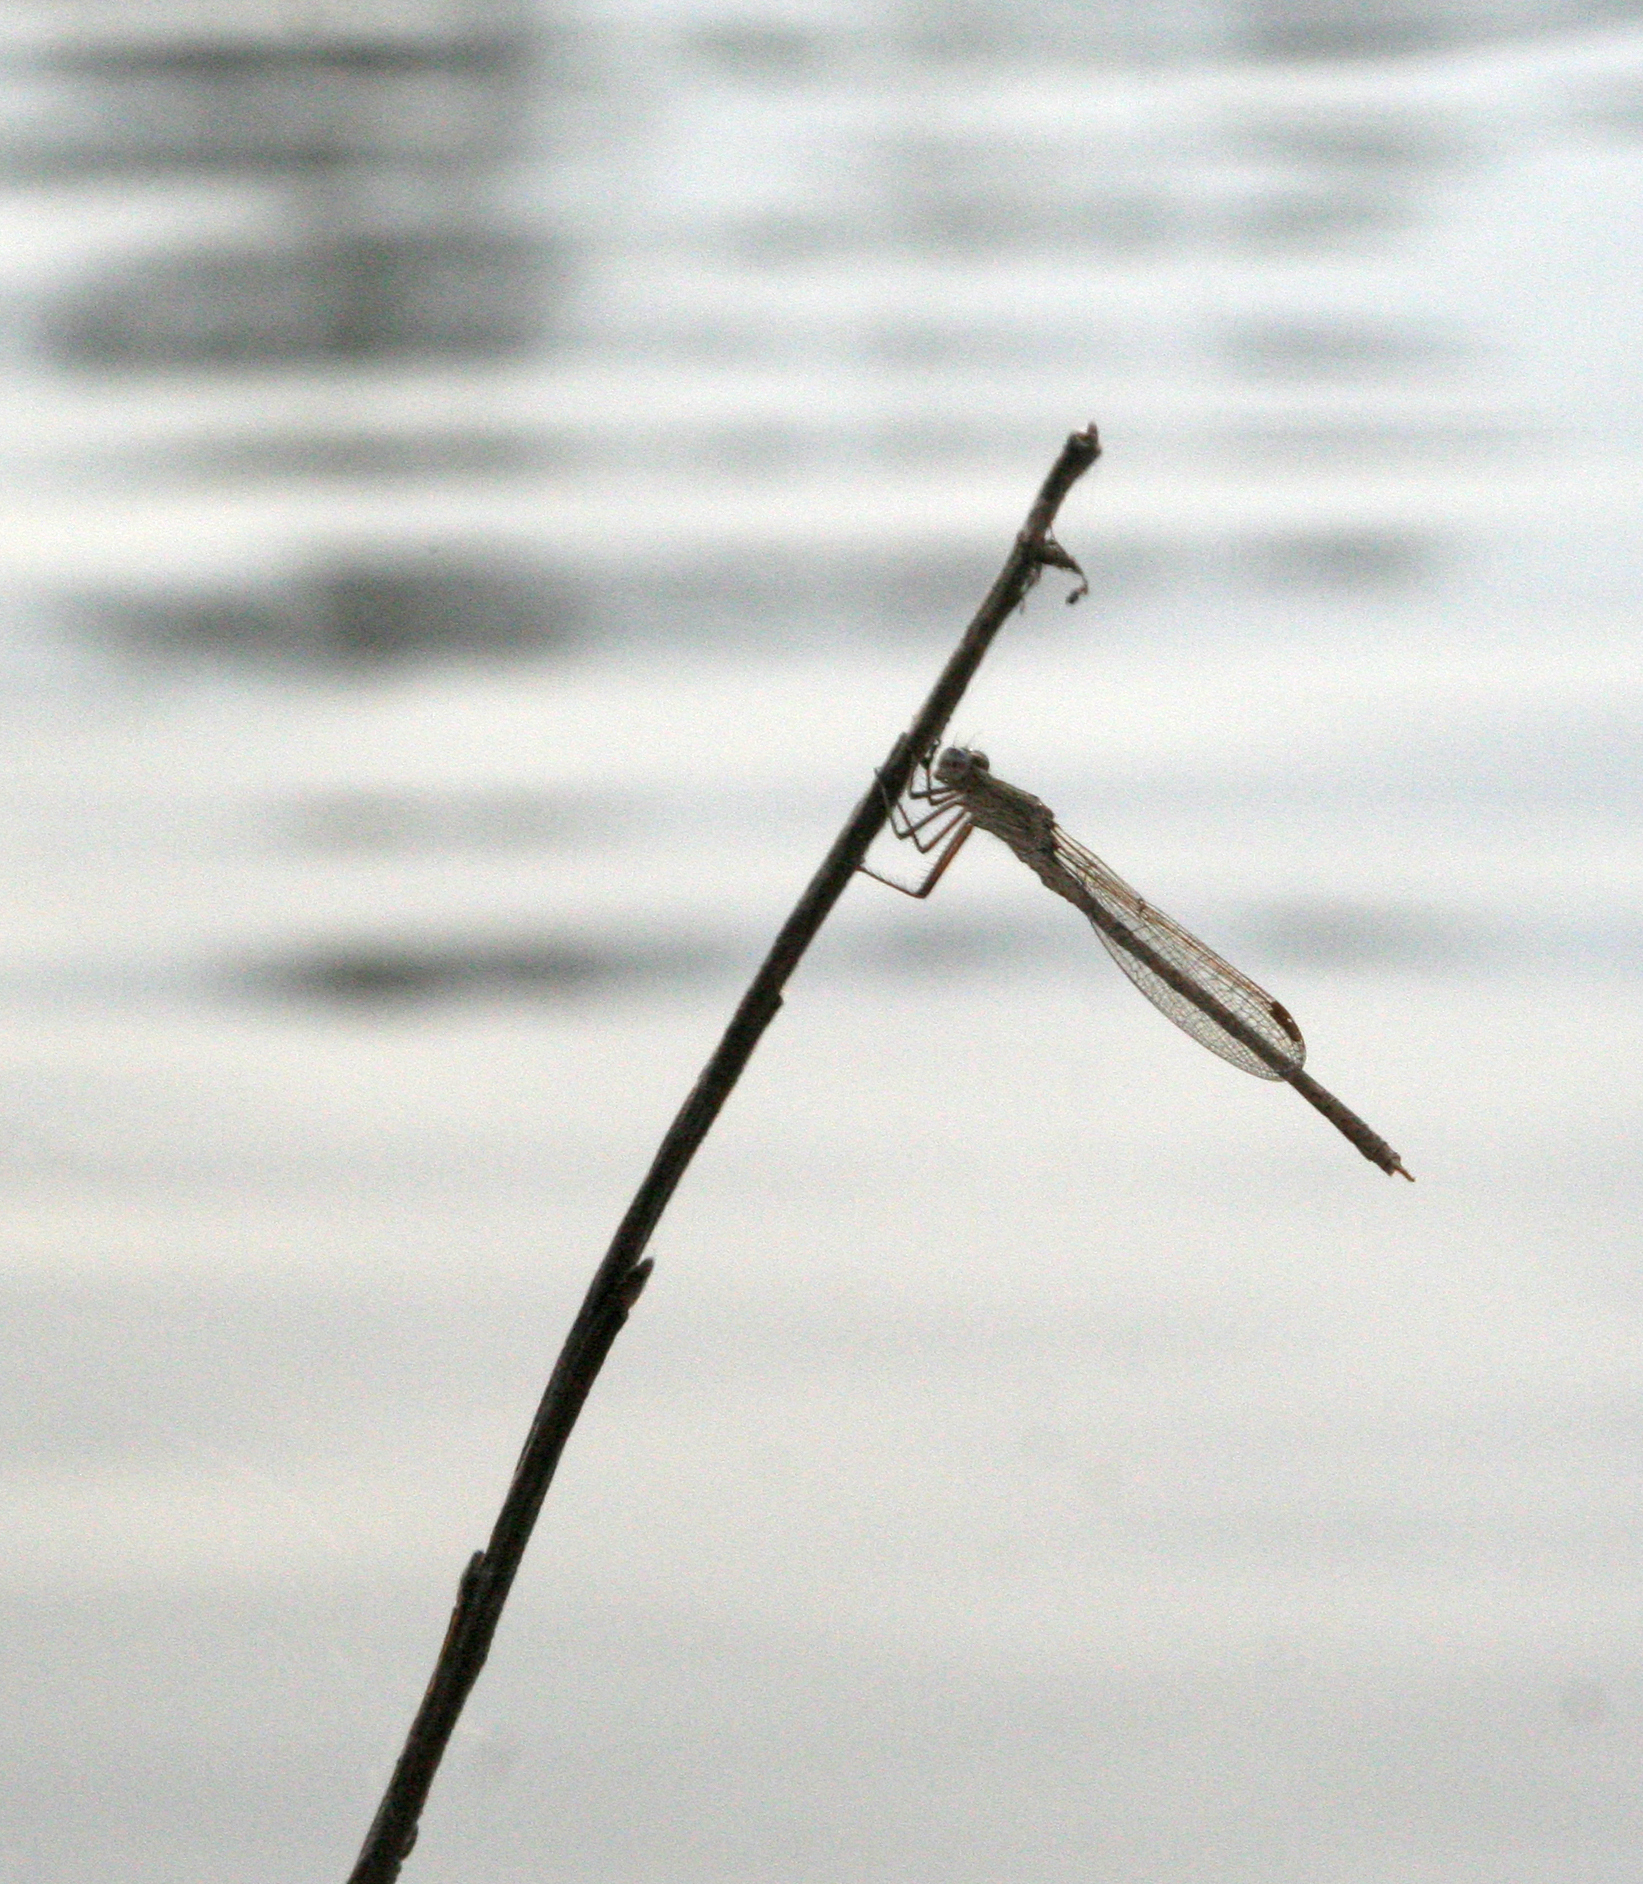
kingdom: Animalia
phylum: Arthropoda
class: Insecta
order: Odonata
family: Lestidae
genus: Sympecma
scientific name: Sympecma paedisca
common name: Siberian winter damsel
